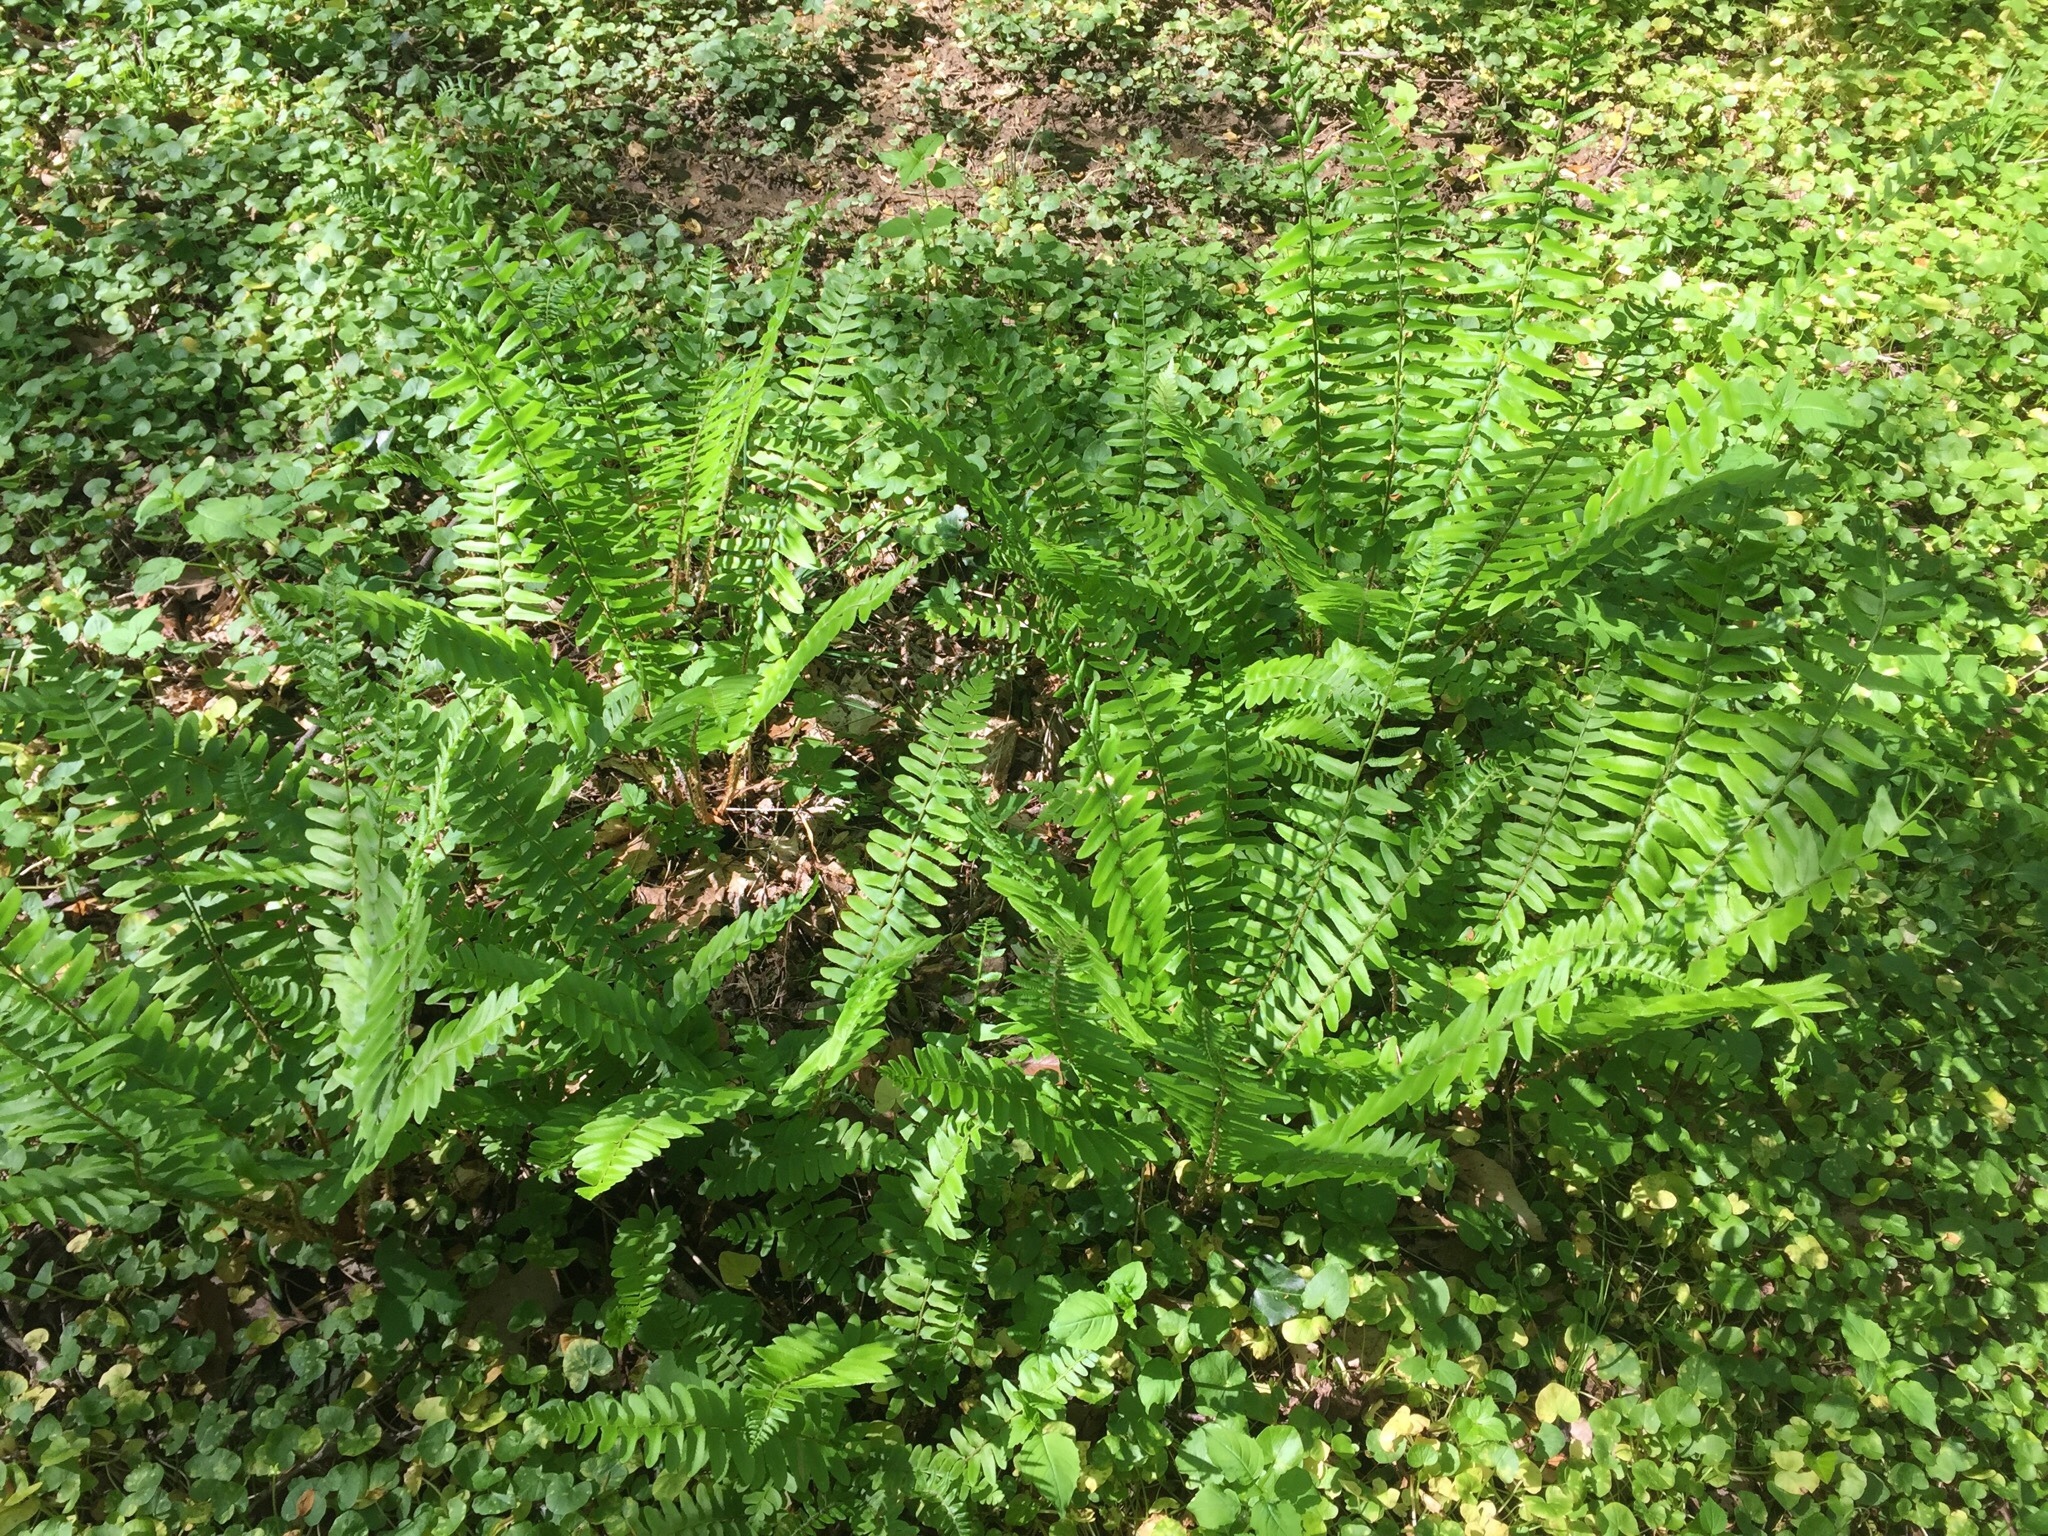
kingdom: Plantae
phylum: Tracheophyta
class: Polypodiopsida
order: Polypodiales
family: Dryopteridaceae
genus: Polystichum
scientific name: Polystichum acrostichoides
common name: Christmas fern
